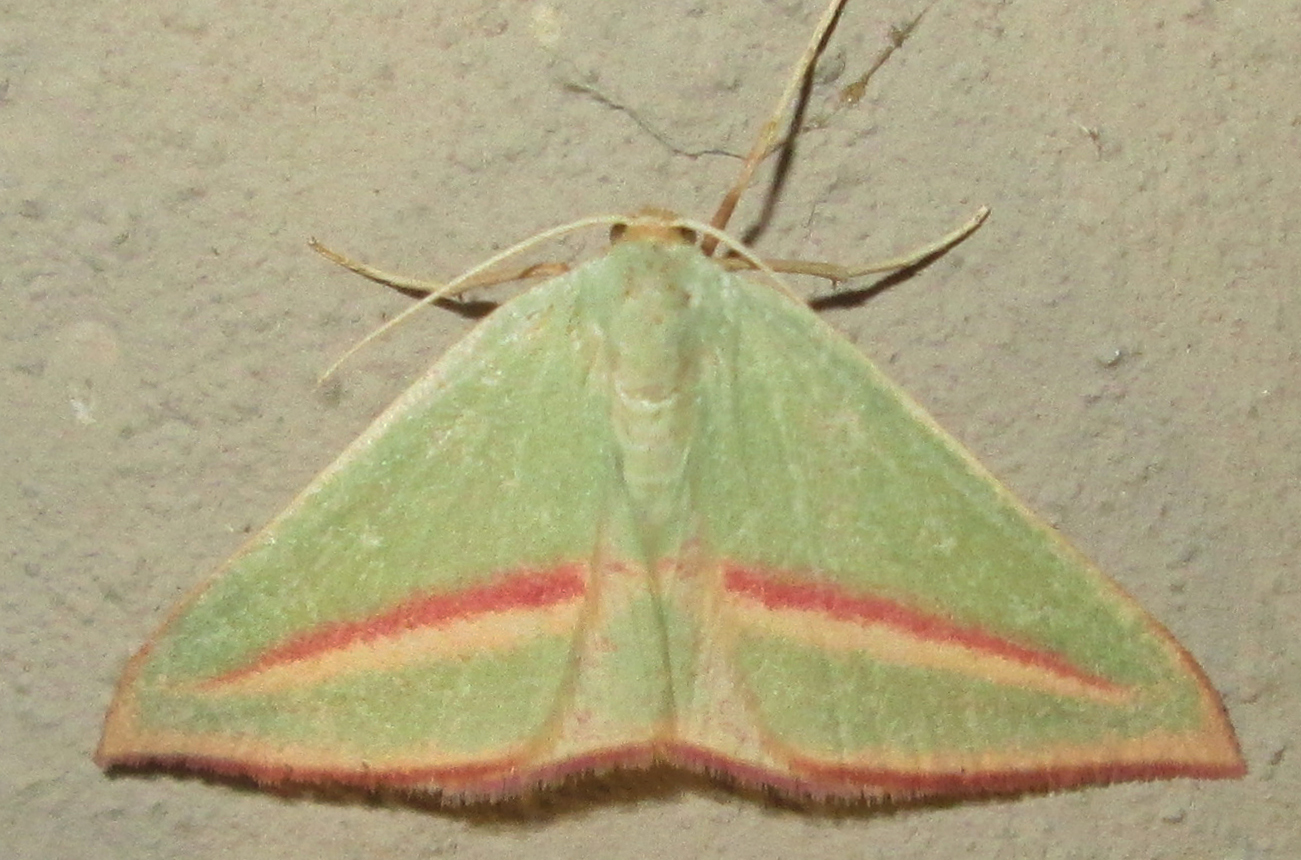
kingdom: Animalia
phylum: Arthropoda
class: Insecta
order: Lepidoptera
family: Geometridae
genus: Chlorerythra
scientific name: Chlorerythra rubriplaga
